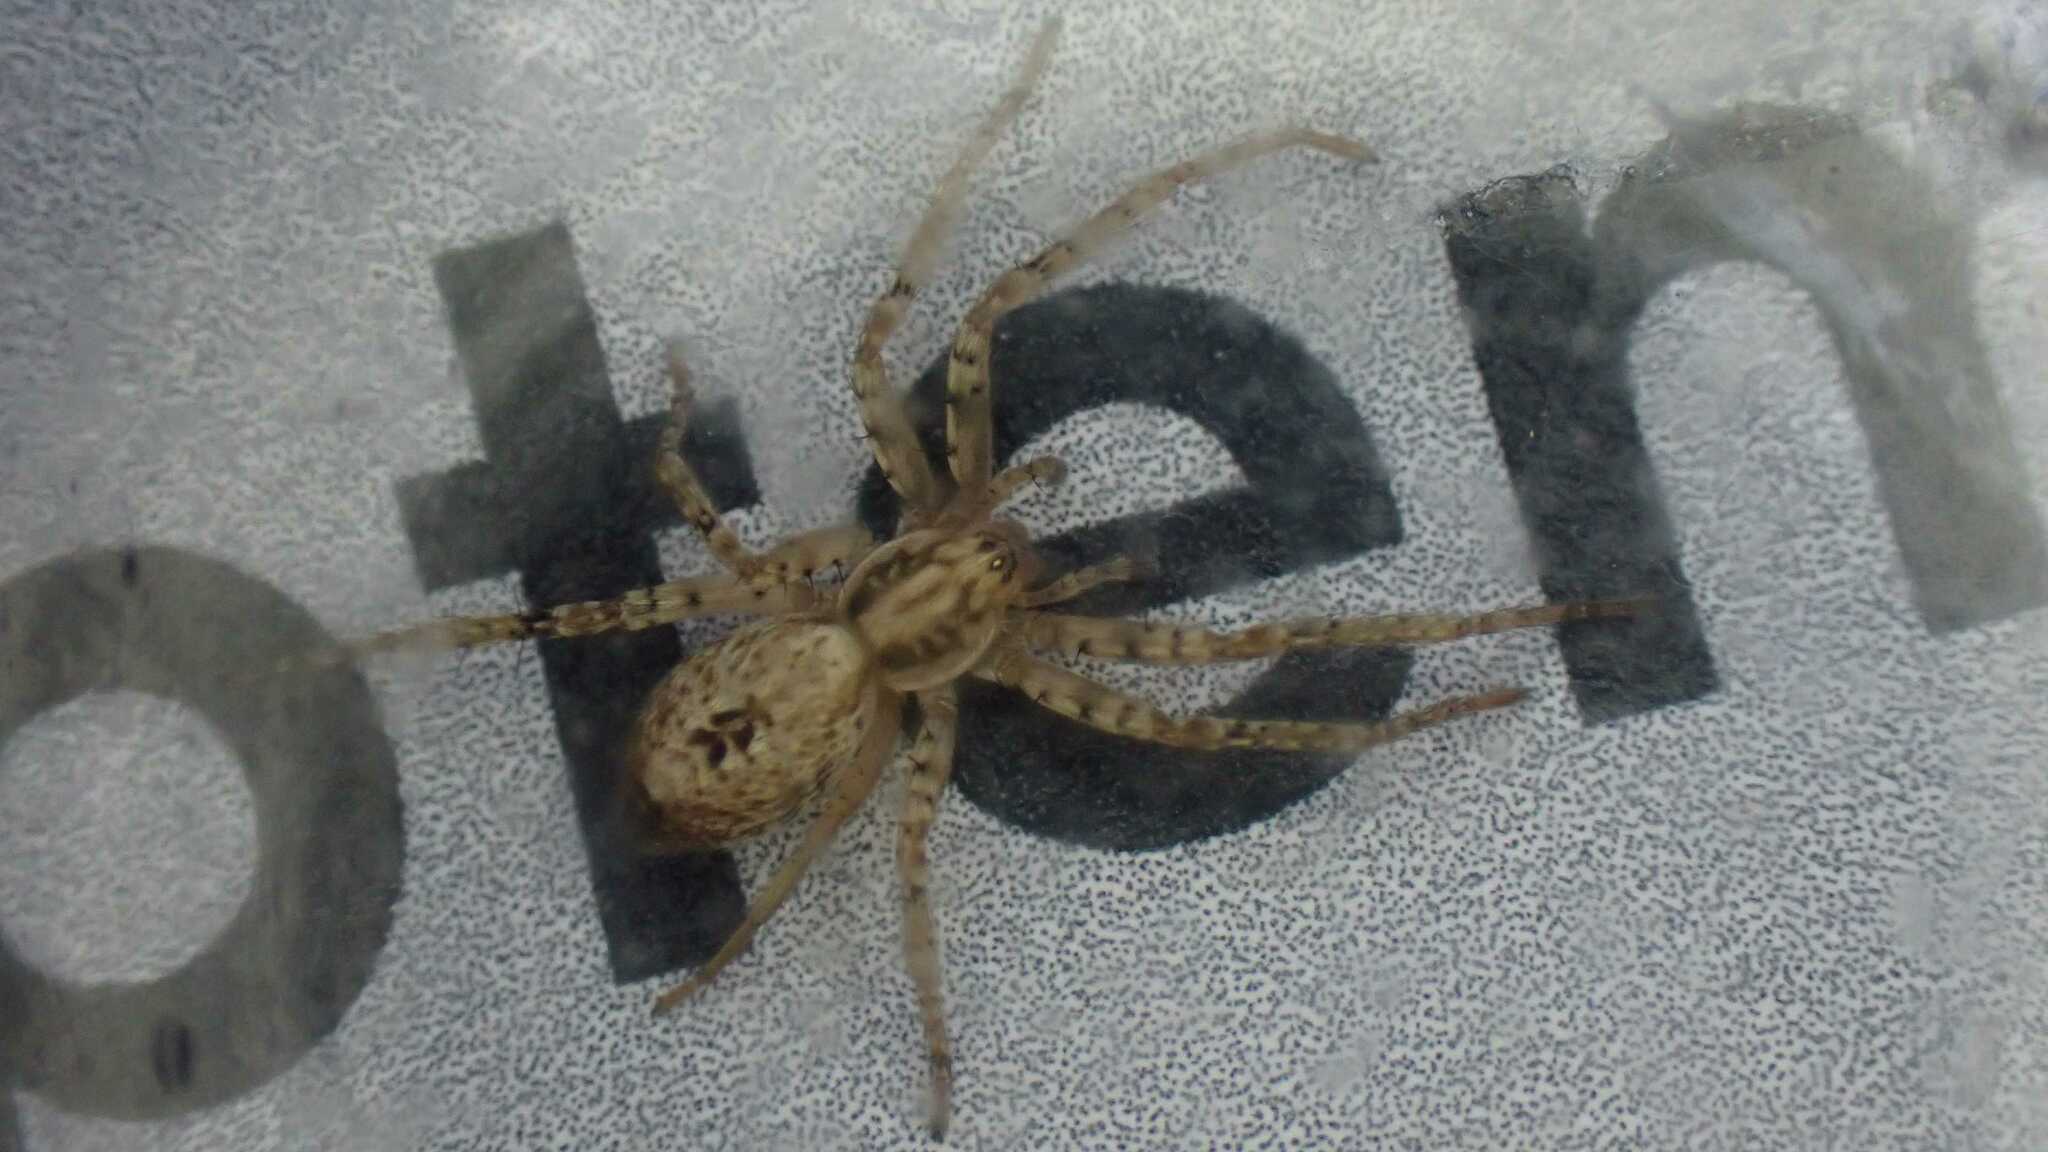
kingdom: Animalia
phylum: Arthropoda
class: Arachnida
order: Araneae
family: Anyphaenidae
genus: Anyphaena
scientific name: Anyphaena accentuata
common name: Buzzing spider
